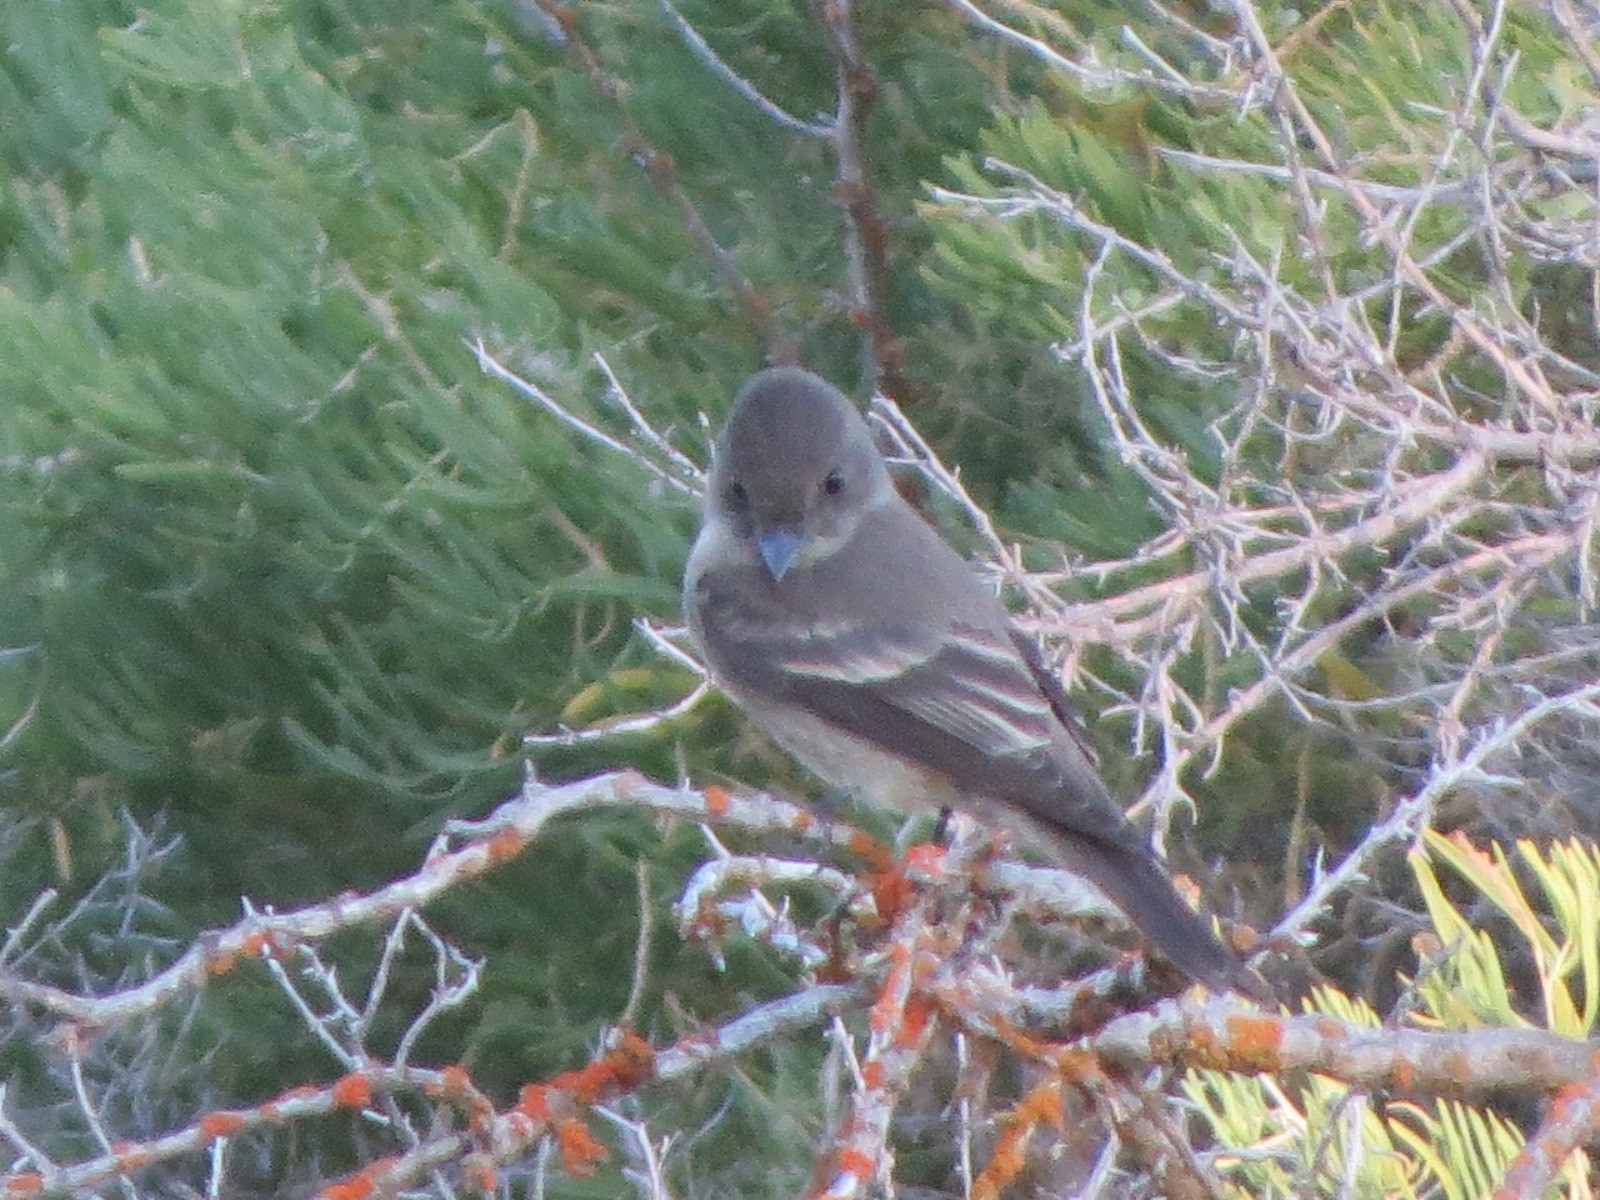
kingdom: Animalia
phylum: Chordata
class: Aves
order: Passeriformes
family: Tyrannidae
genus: Contopus
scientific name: Contopus sordidulus
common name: Western wood-pewee
